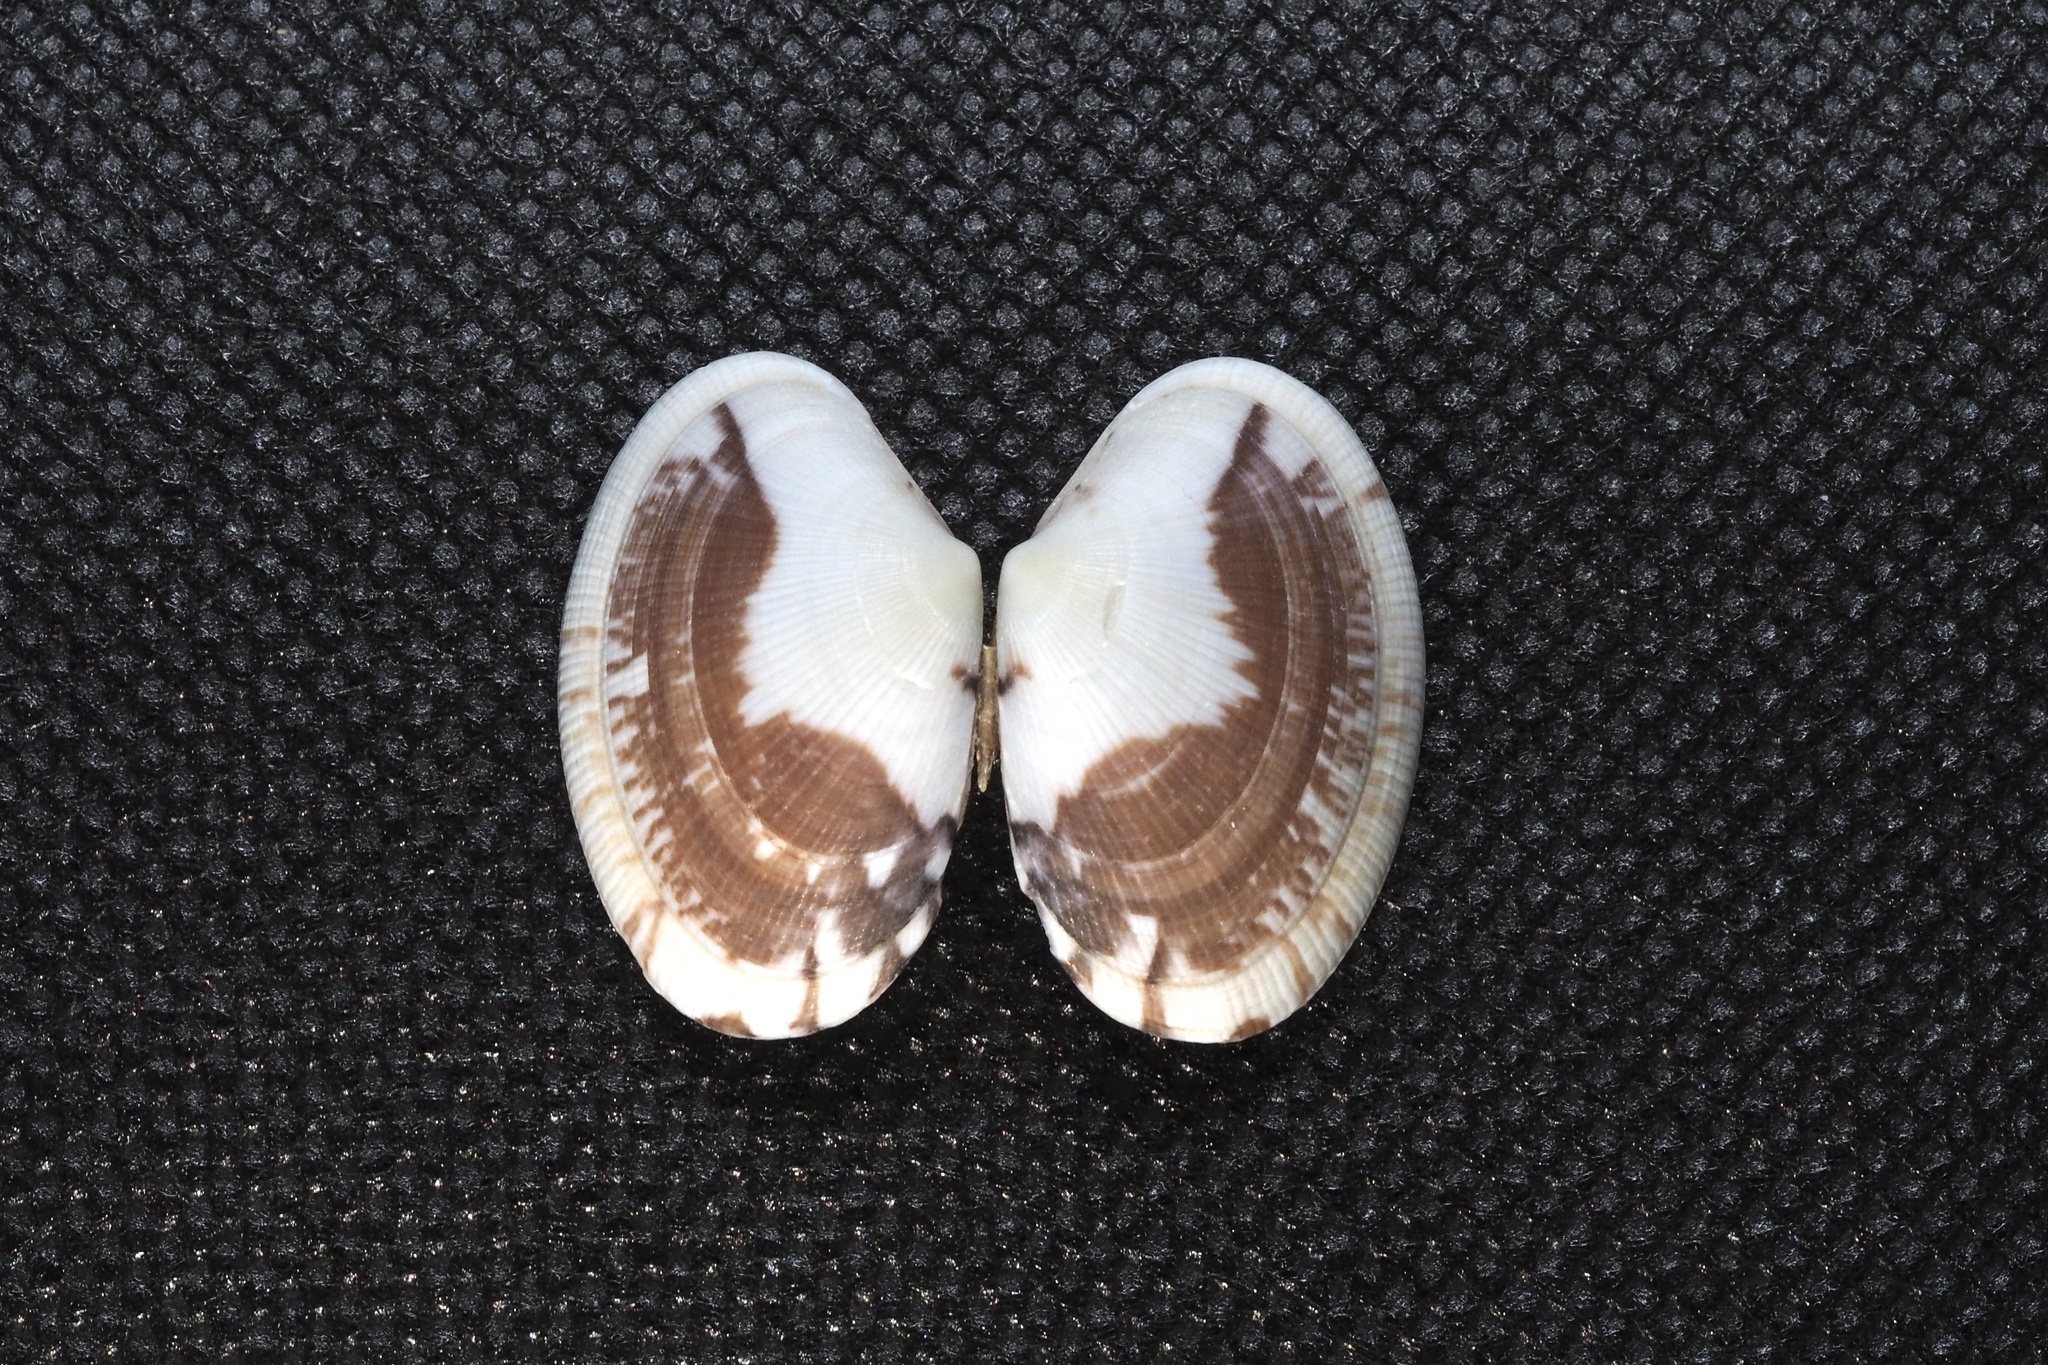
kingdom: Animalia
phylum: Mollusca
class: Bivalvia
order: Venerida
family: Veneridae
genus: Ruditapes
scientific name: Ruditapes philippinarum
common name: Manila clam
